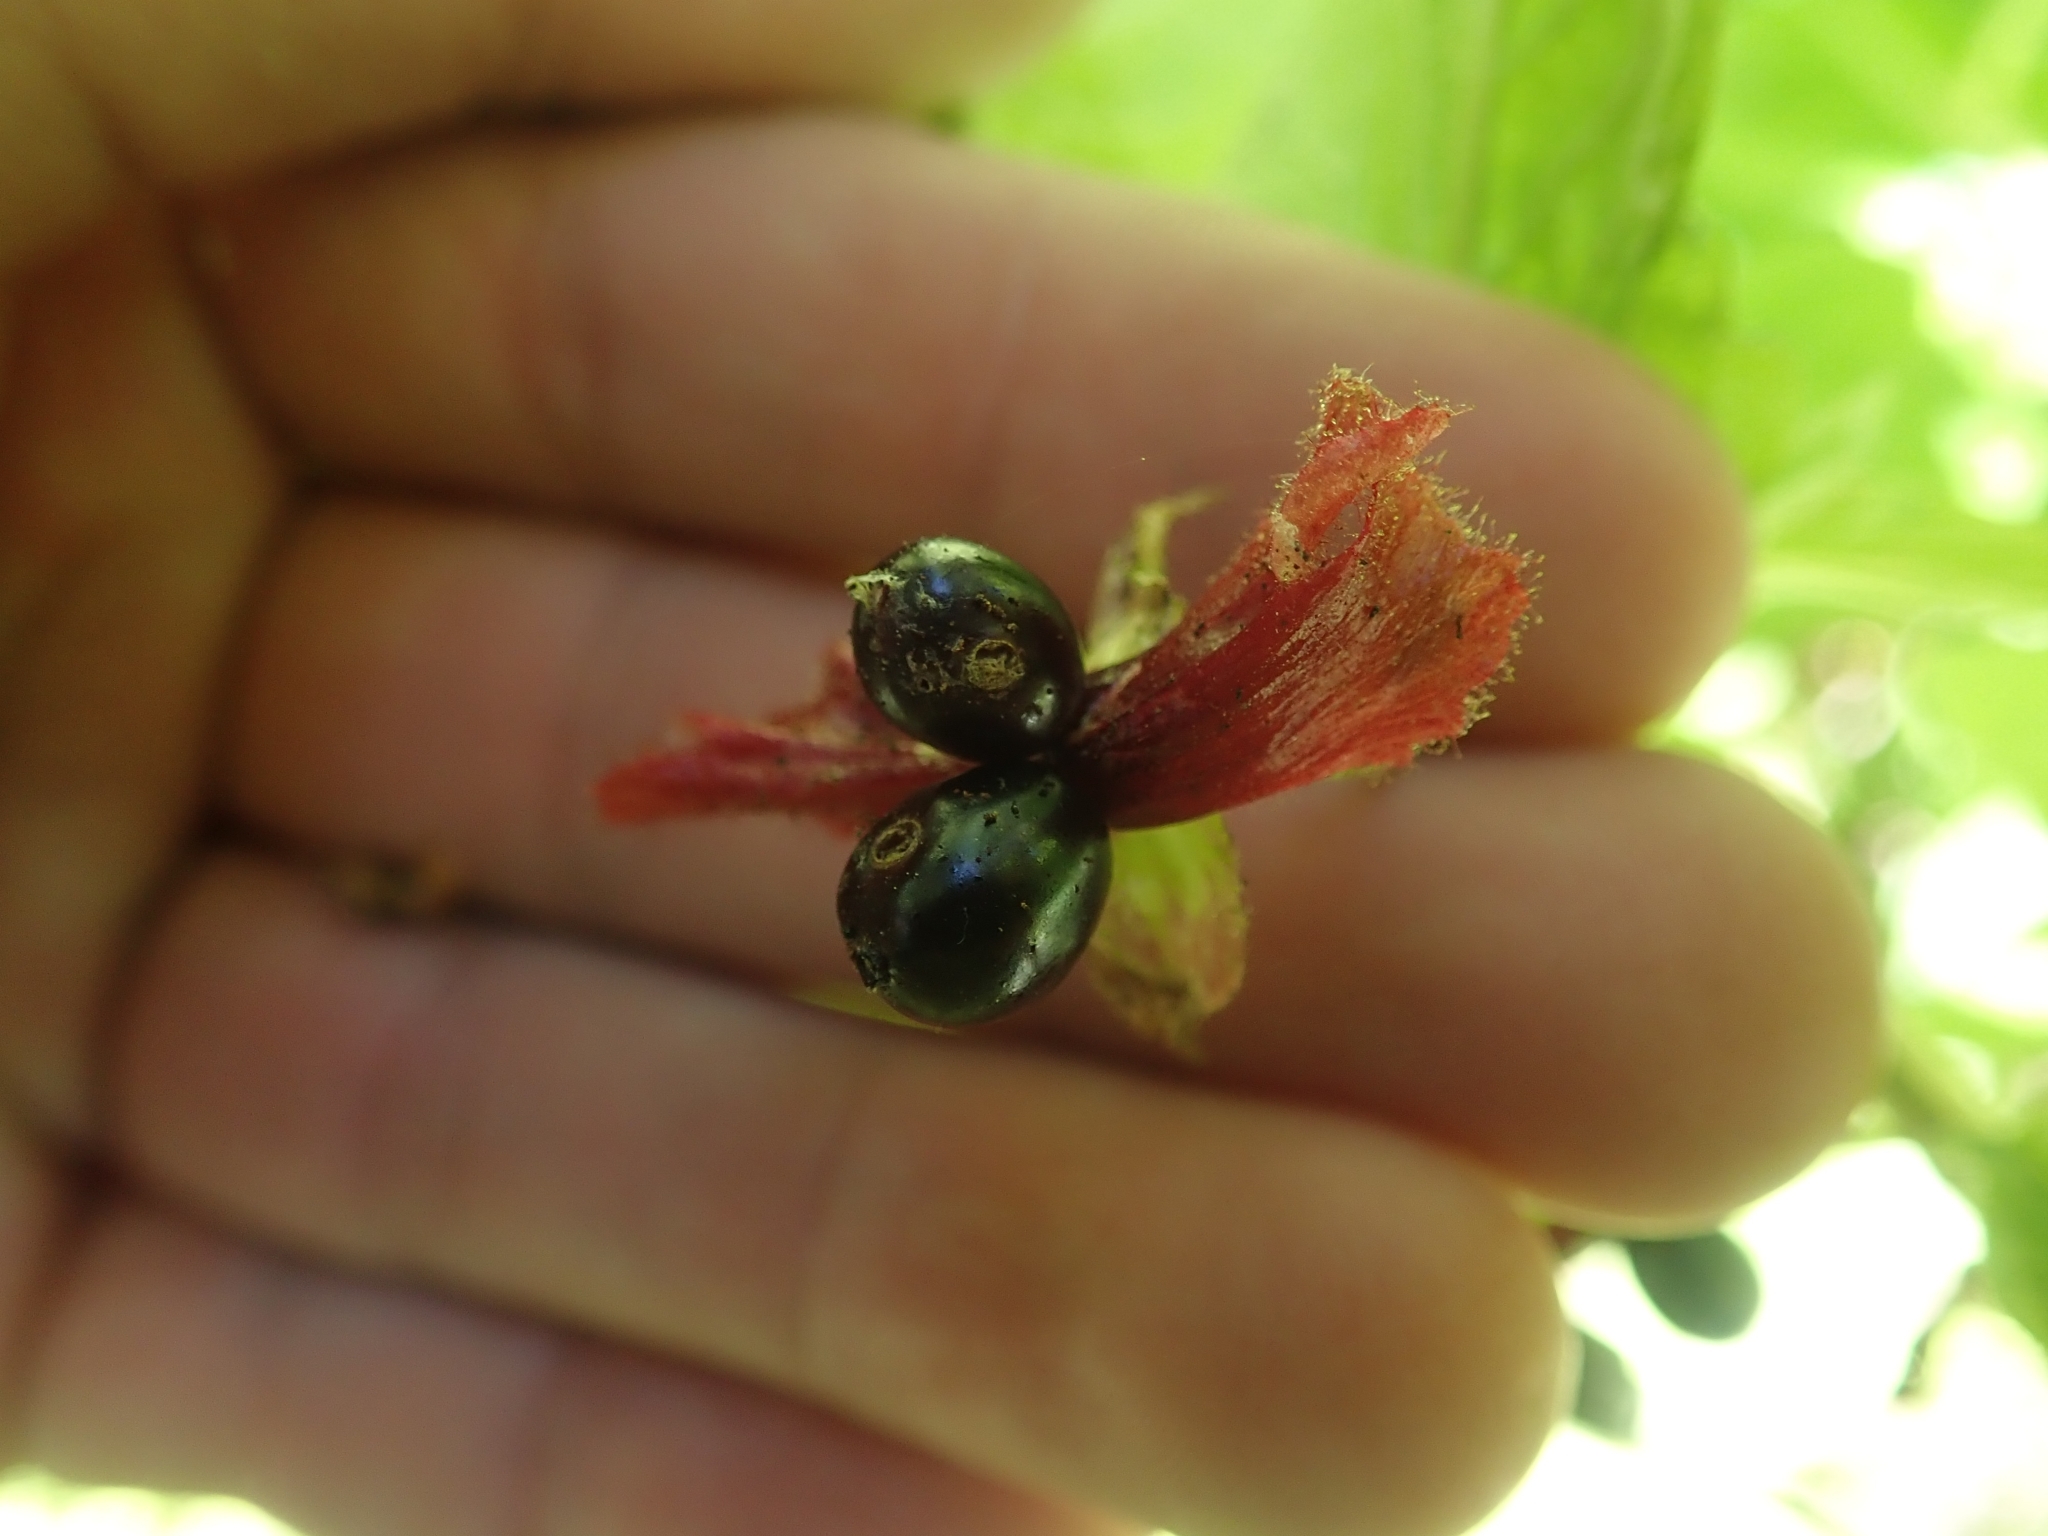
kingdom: Plantae
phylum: Tracheophyta
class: Magnoliopsida
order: Dipsacales
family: Caprifoliaceae
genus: Lonicera
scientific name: Lonicera involucrata
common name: Californian honeysuckle
